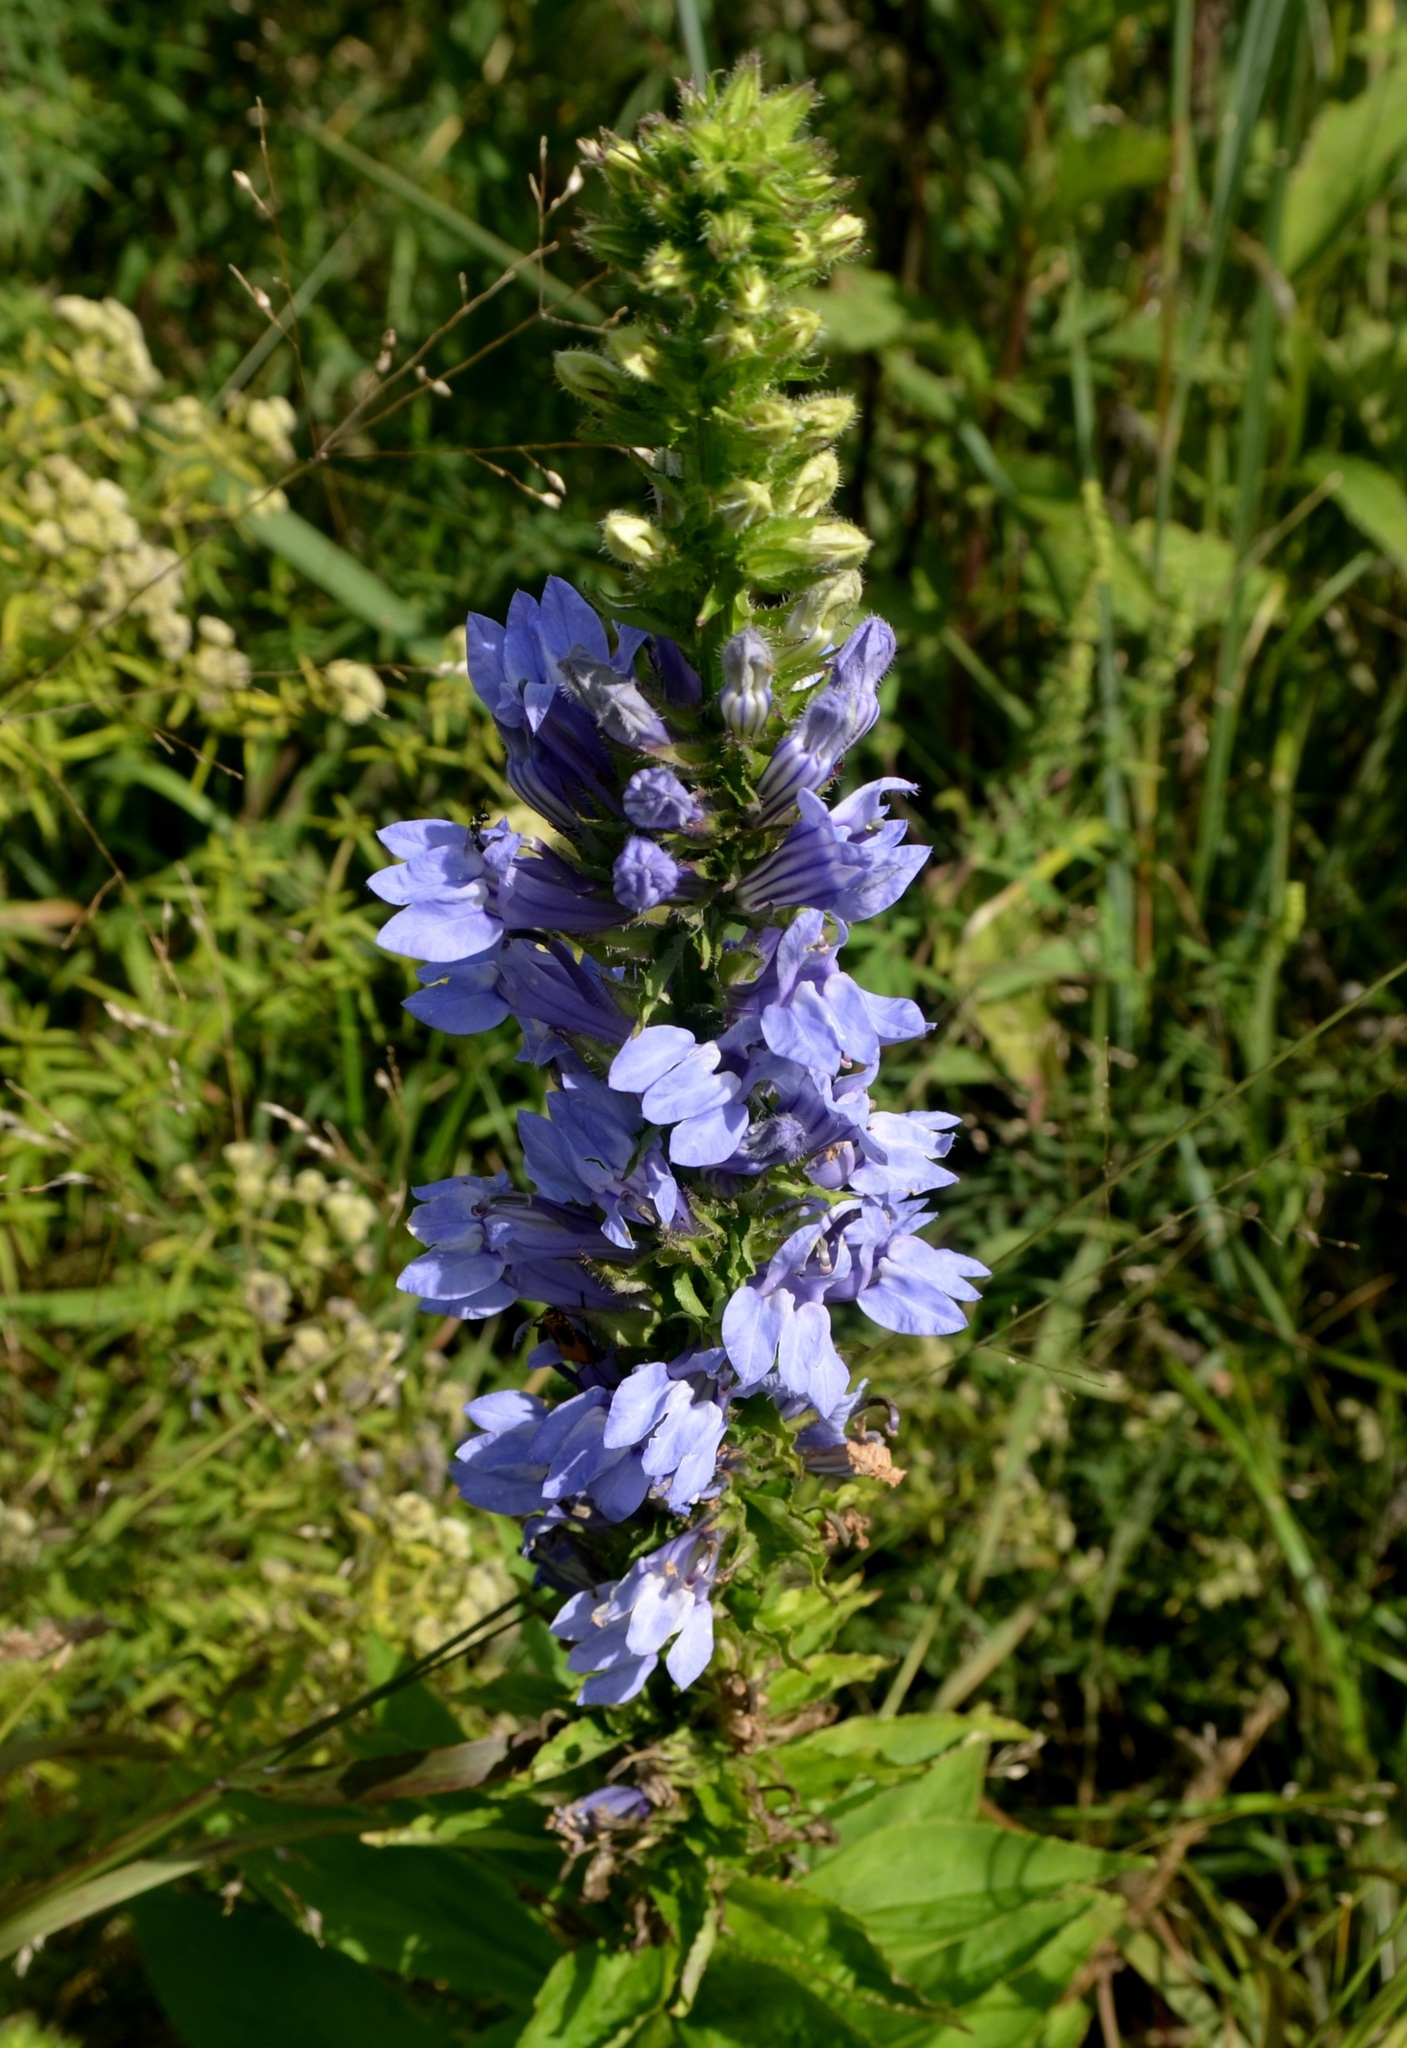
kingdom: Plantae
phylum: Tracheophyta
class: Magnoliopsida
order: Asterales
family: Campanulaceae
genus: Lobelia
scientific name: Lobelia siphilitica
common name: Great lobelia
